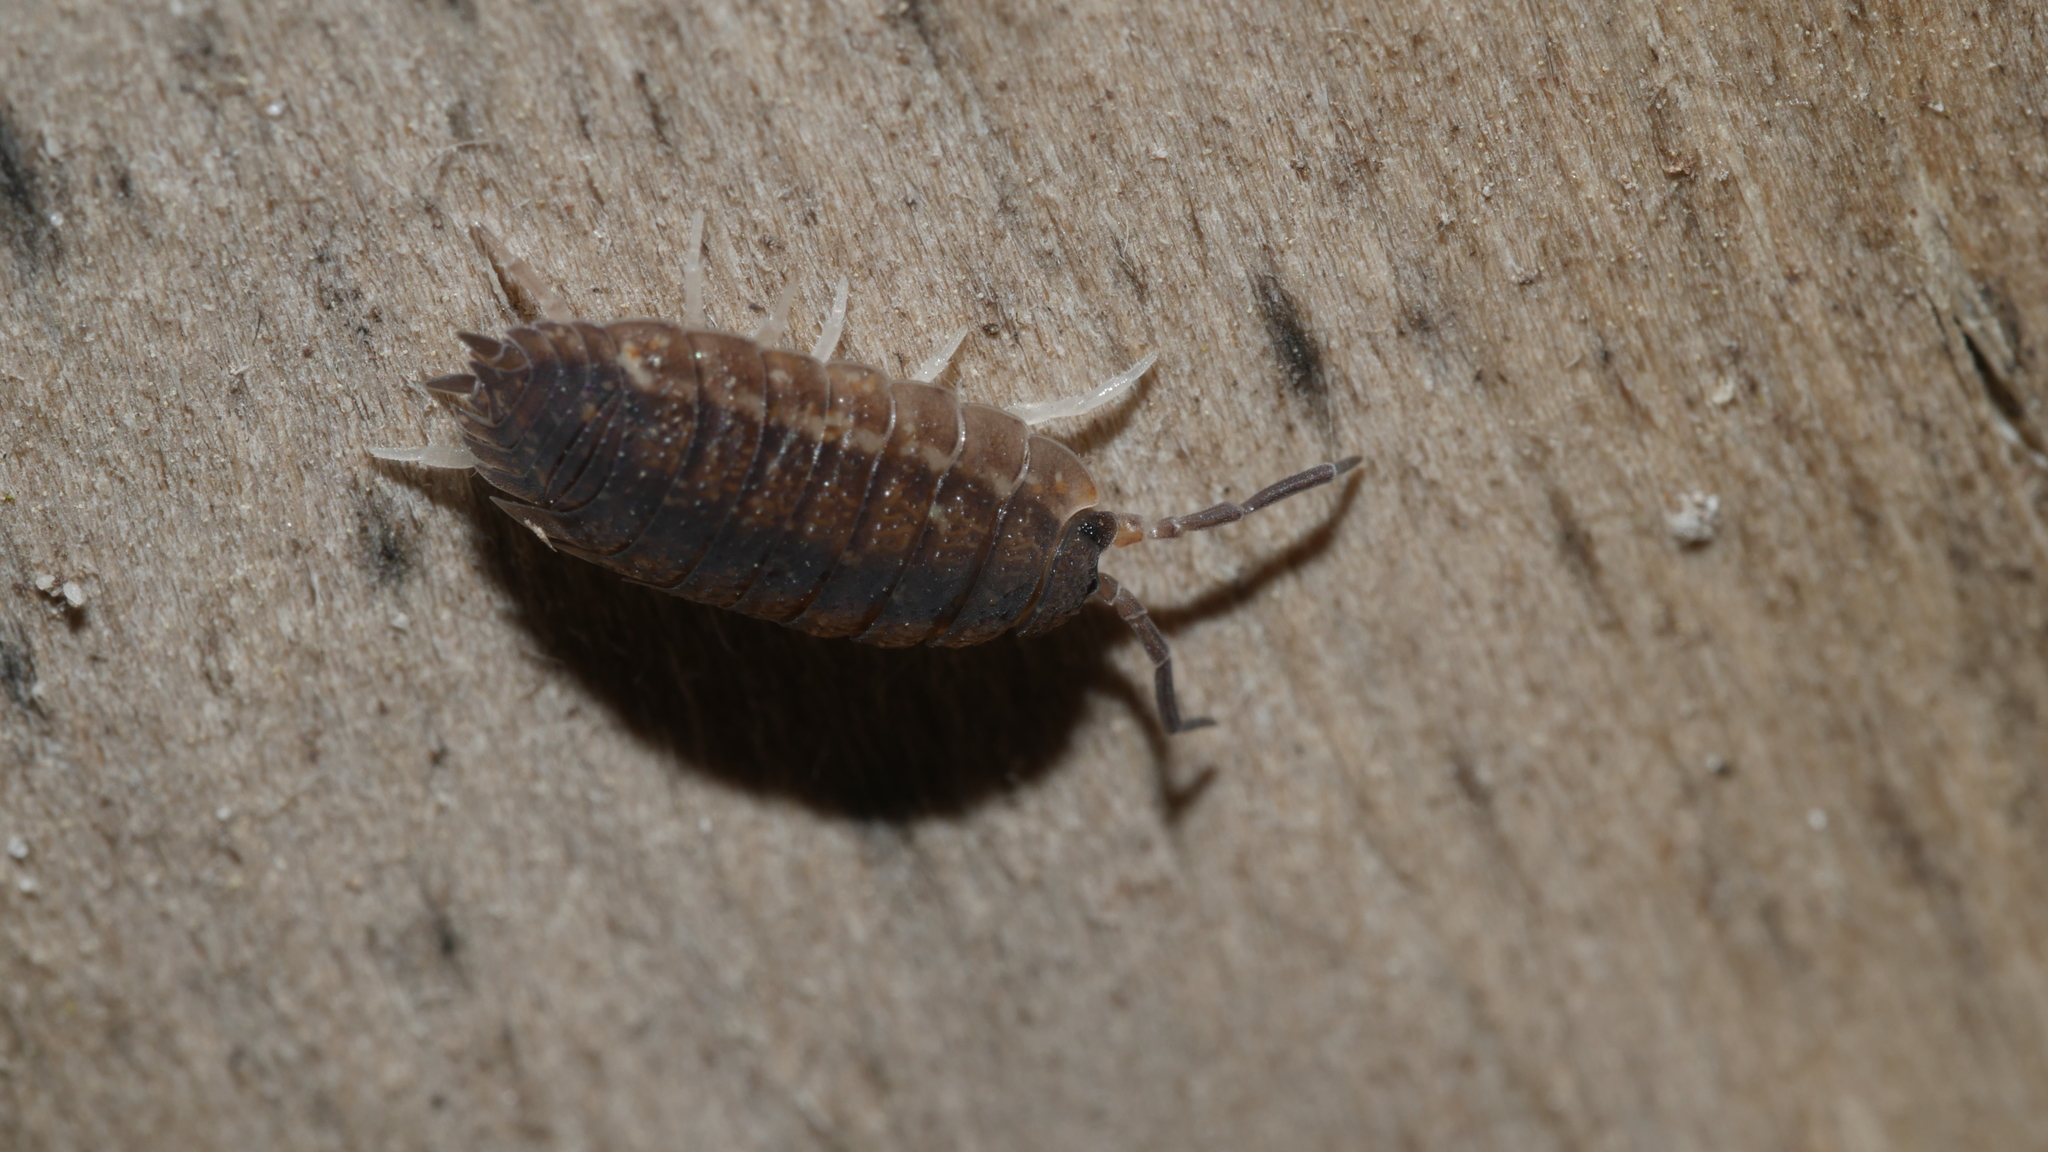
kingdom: Animalia
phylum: Arthropoda
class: Malacostraca
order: Isopoda
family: Porcellionidae
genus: Porcellio
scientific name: Porcellio scaber
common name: Common rough woodlouse
